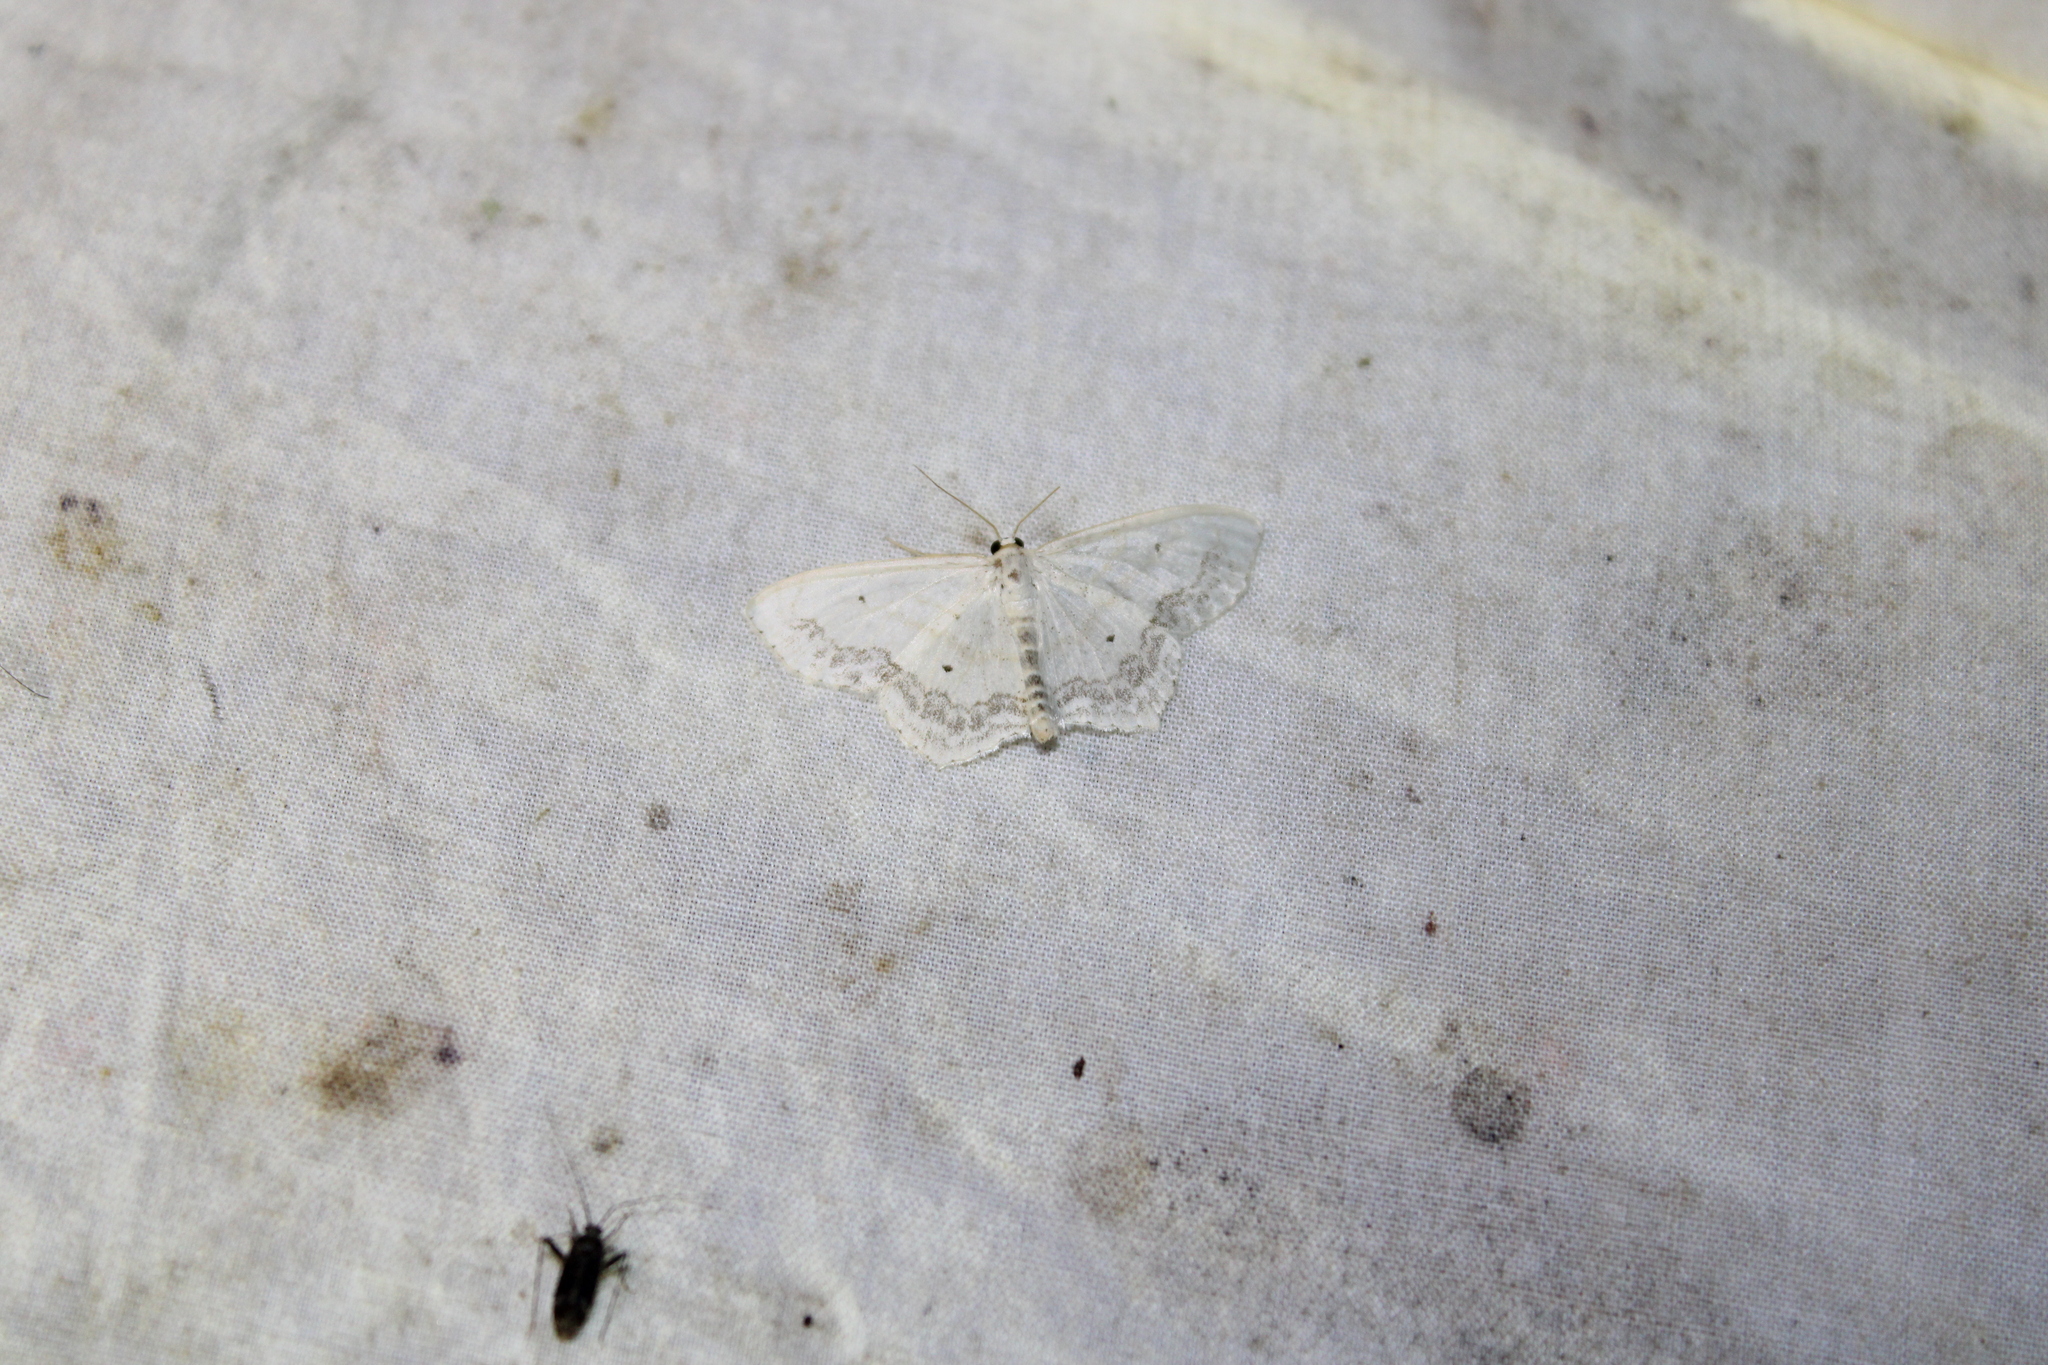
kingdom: Animalia
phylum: Arthropoda
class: Insecta
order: Lepidoptera
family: Geometridae
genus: Scopula
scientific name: Scopula limboundata
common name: Large lace border
